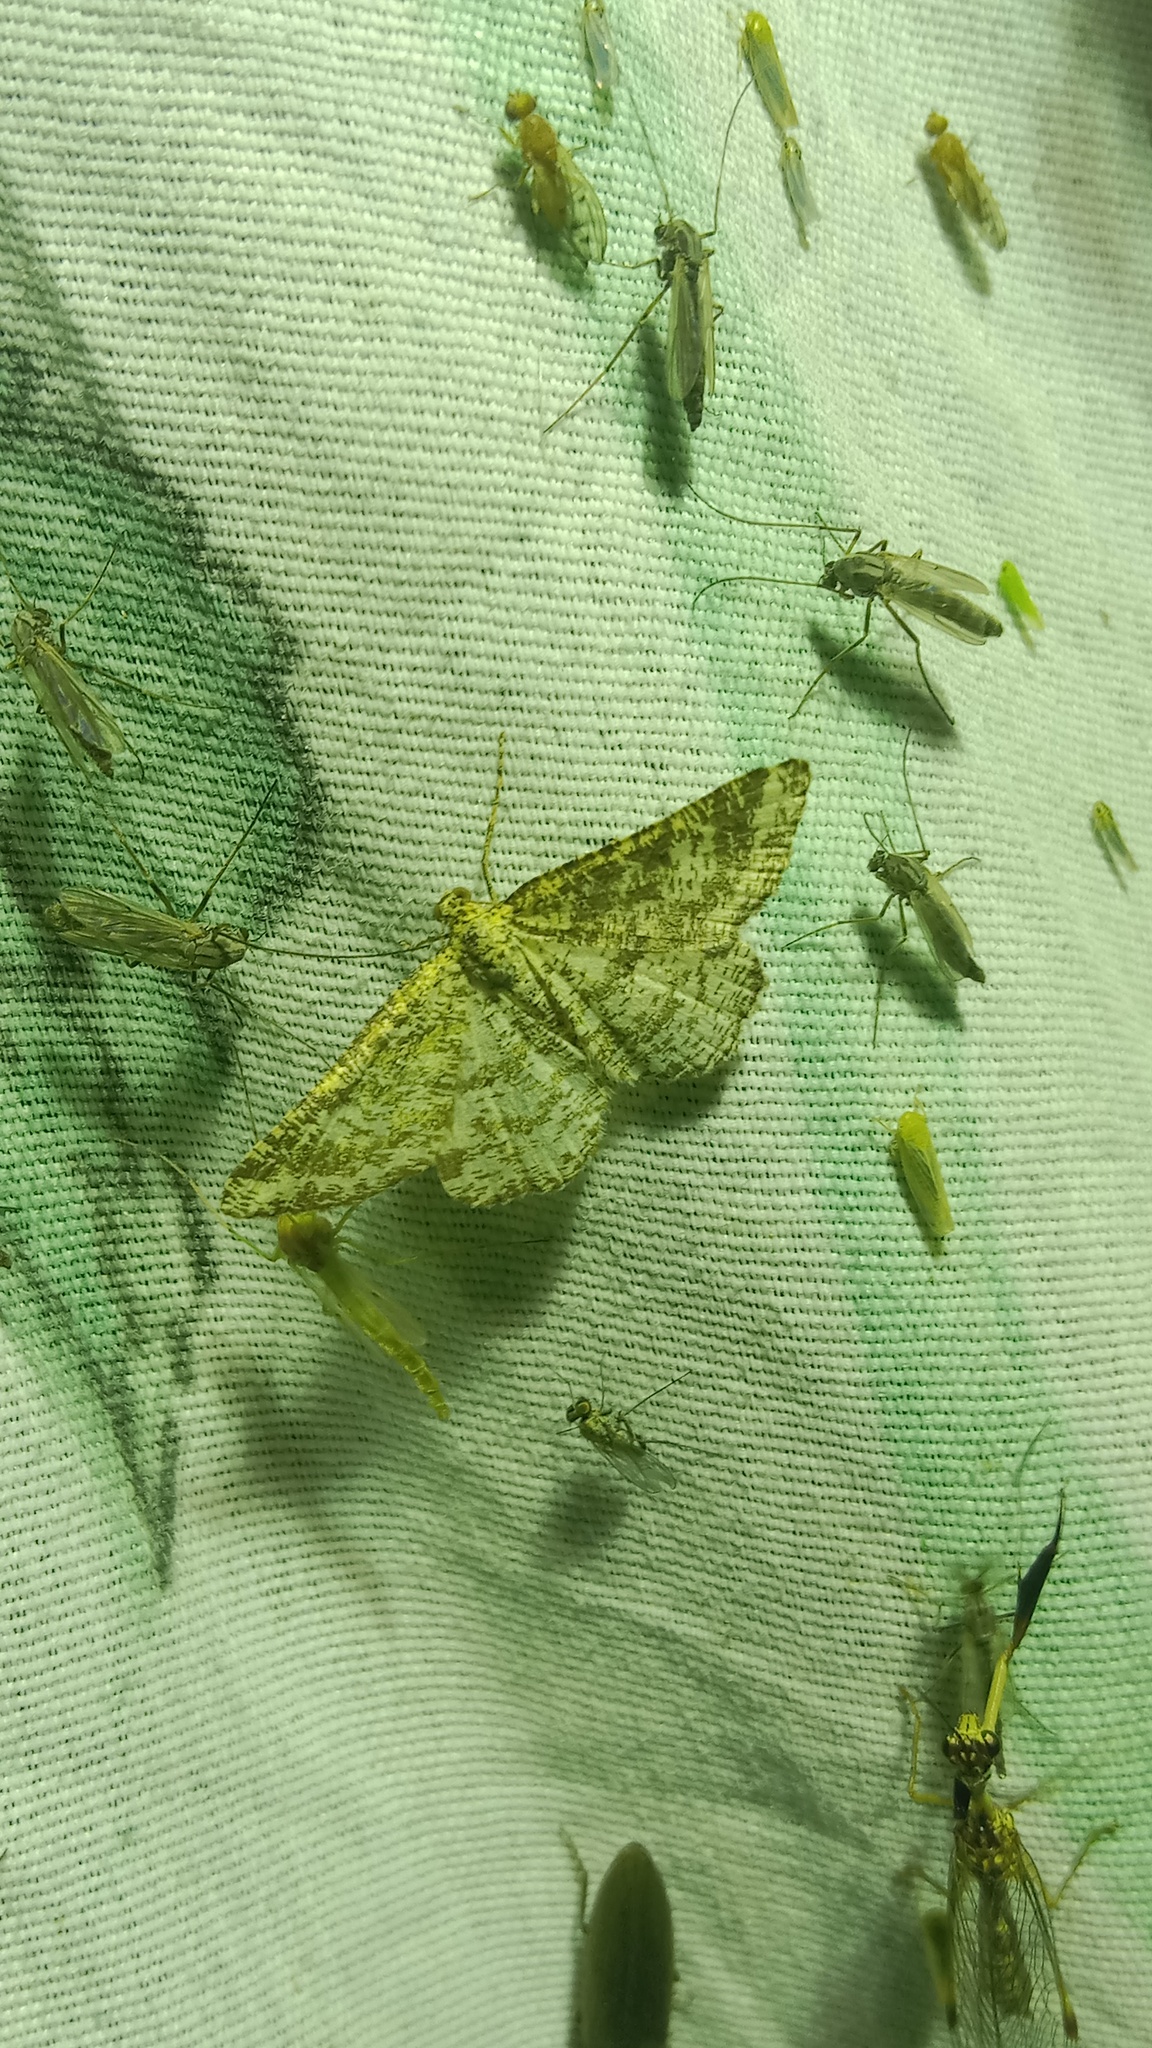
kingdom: Animalia
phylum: Arthropoda
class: Insecta
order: Lepidoptera
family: Geometridae
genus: Heliomata
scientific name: Heliomata glarearia
